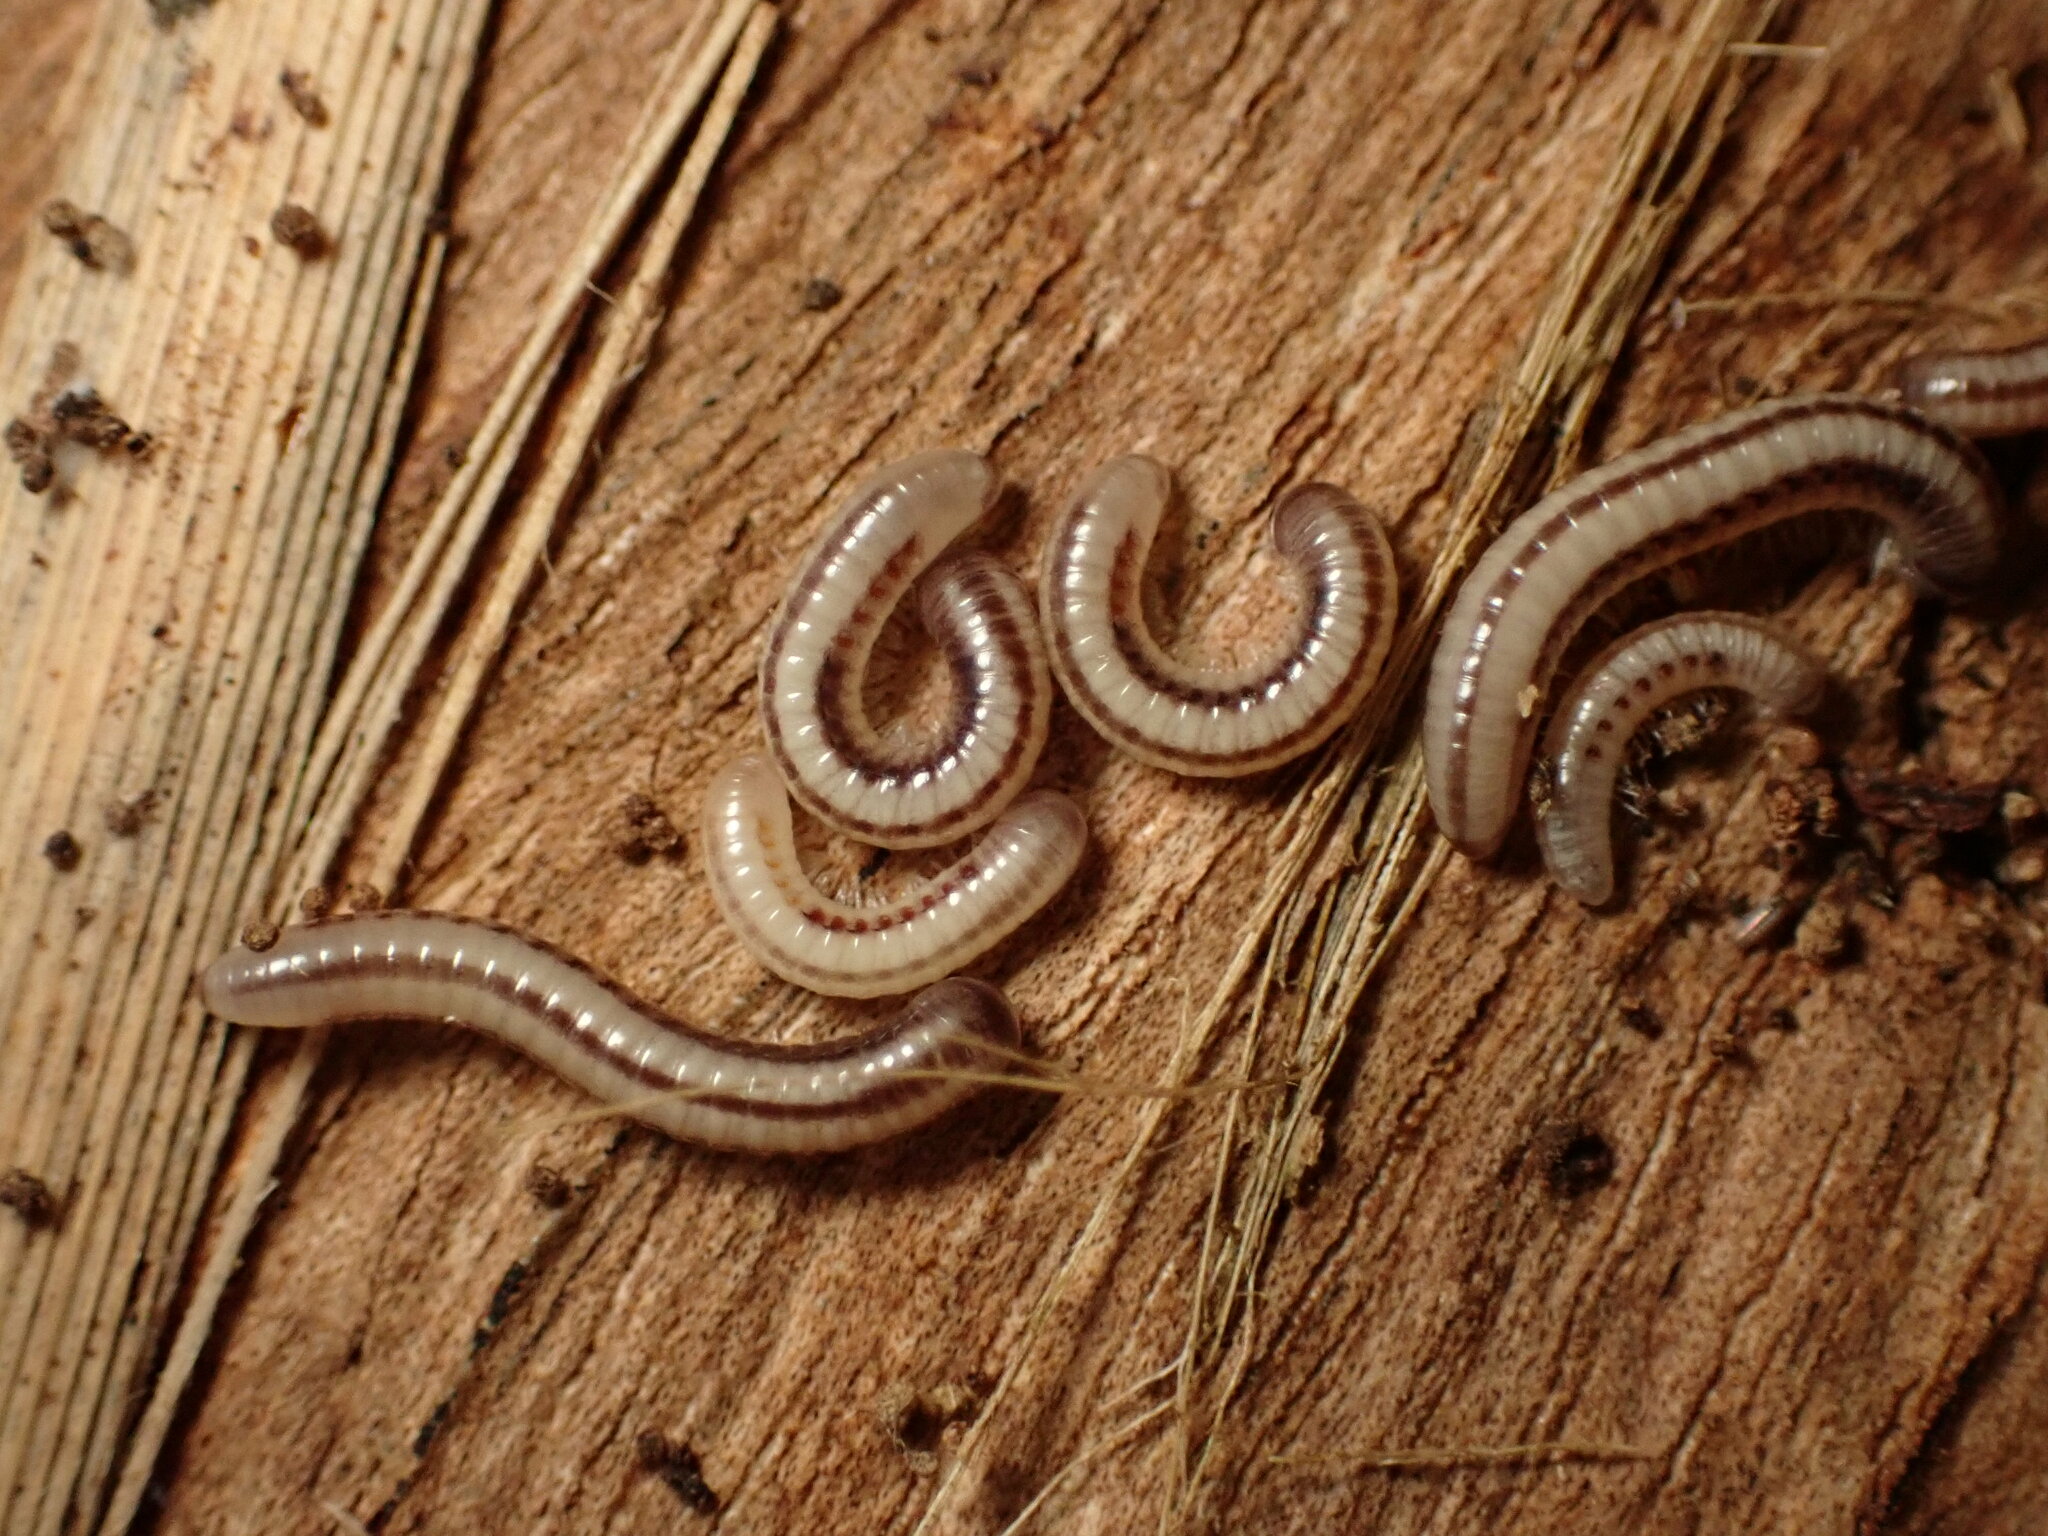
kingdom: Animalia
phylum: Arthropoda
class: Diplopoda
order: Spirobolida
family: Spirobolellidae
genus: Spirobolellus
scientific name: Spirobolellus immigrans
